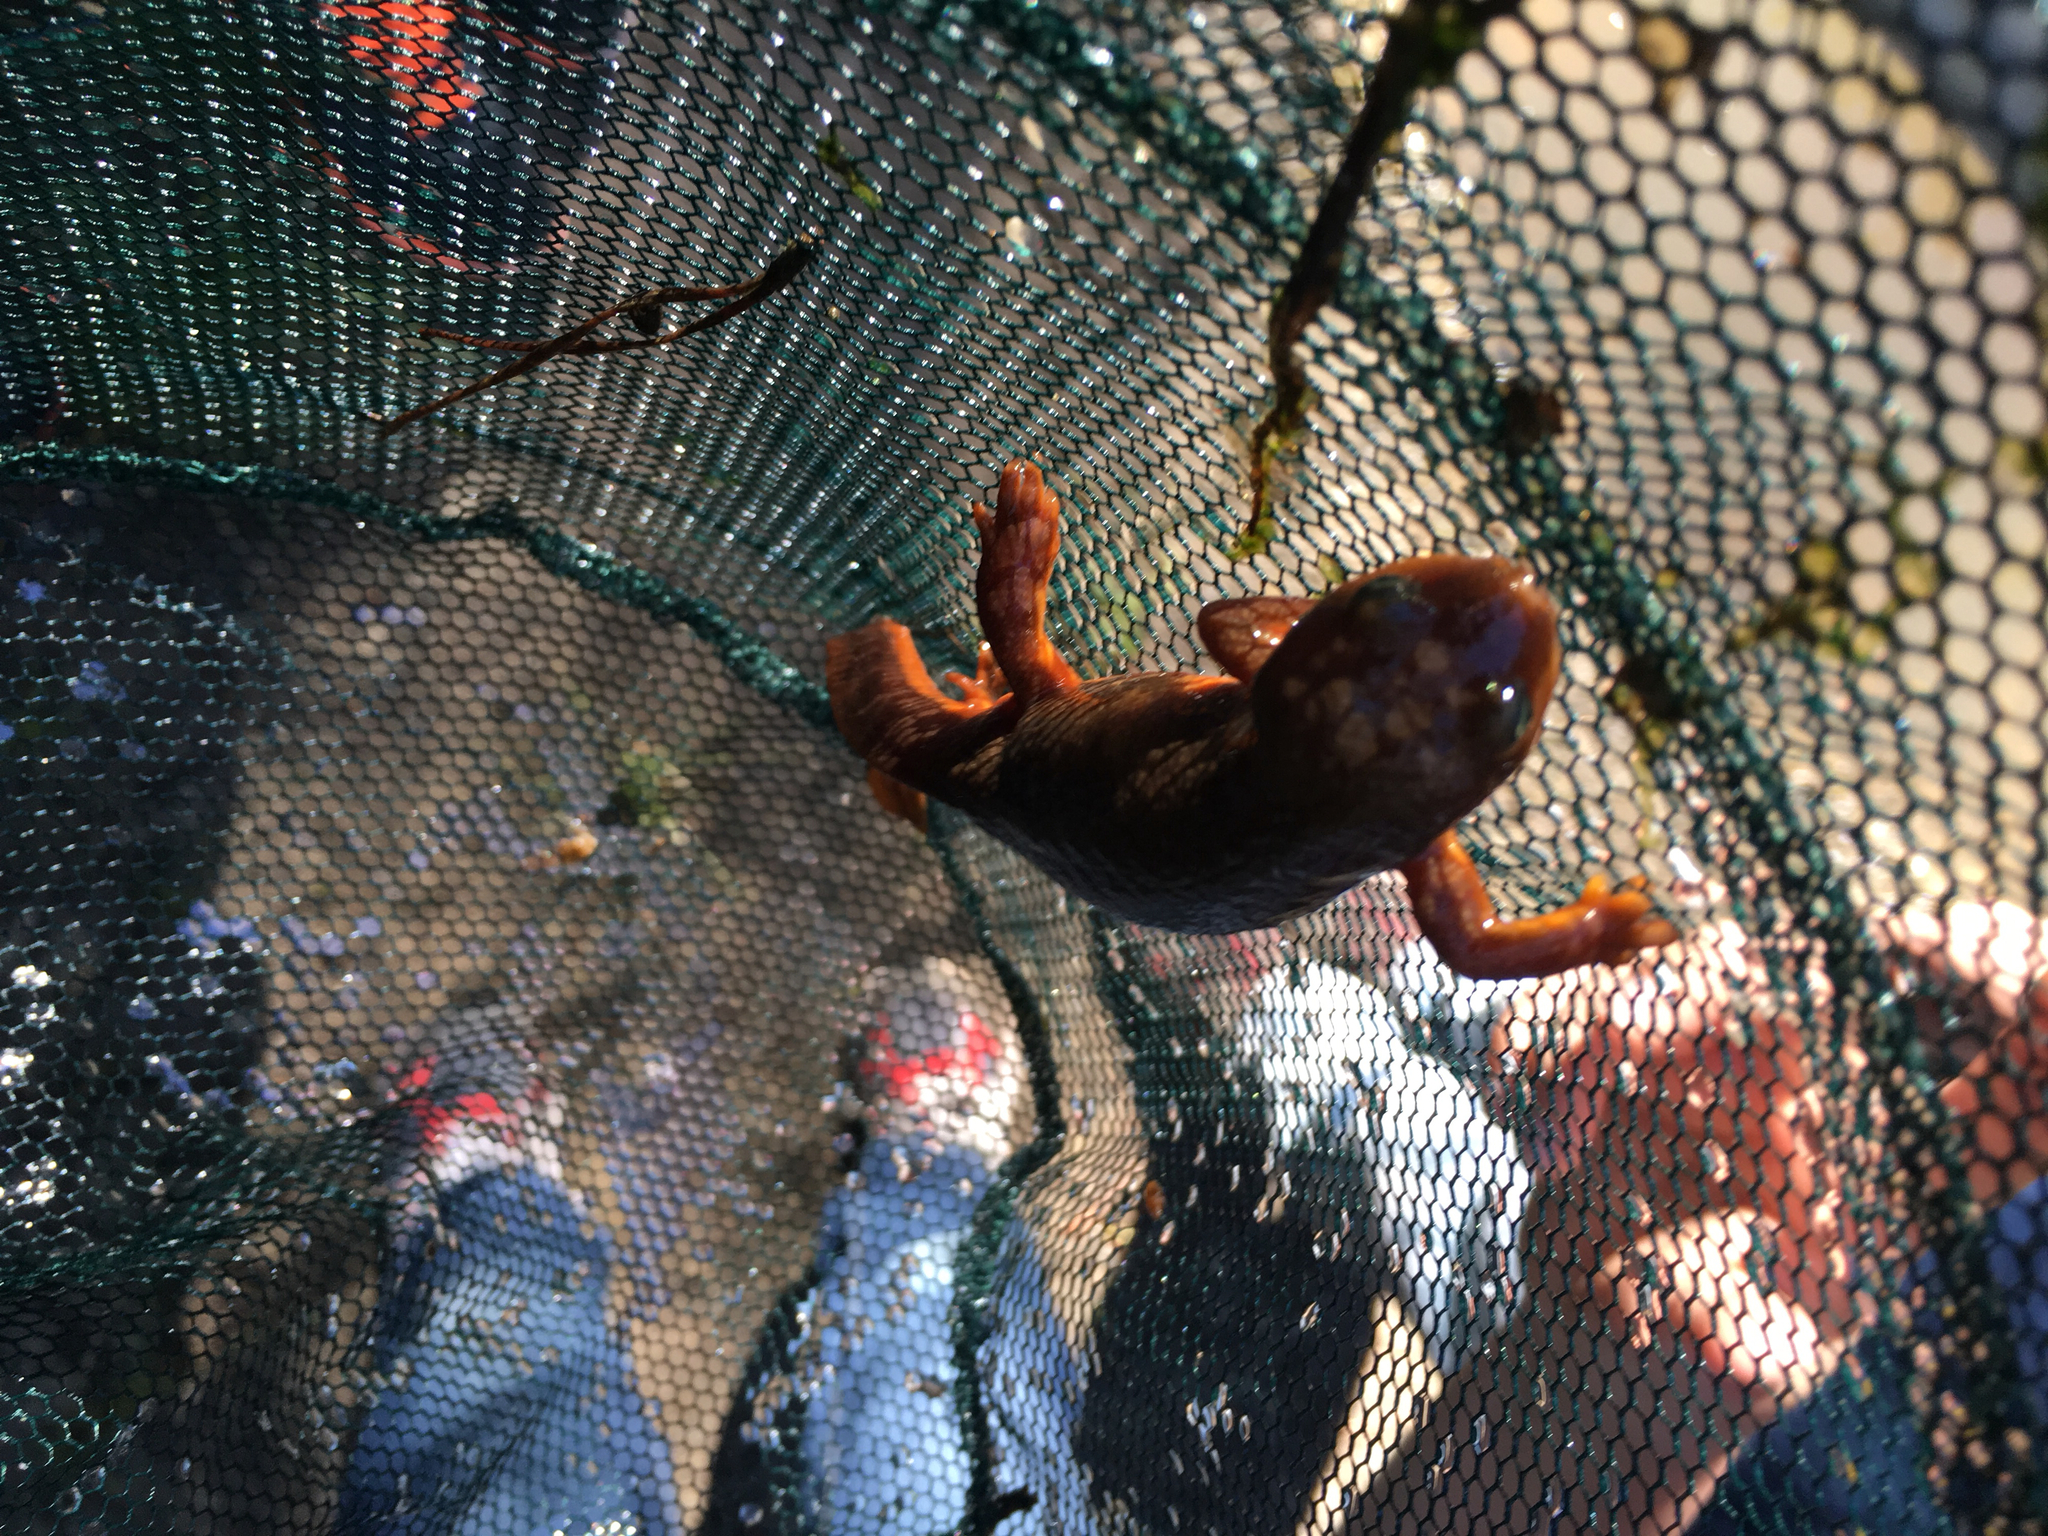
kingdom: Animalia
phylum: Chordata
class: Amphibia
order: Caudata
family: Salamandridae
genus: Taricha
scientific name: Taricha granulosa
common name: Roughskin newt
